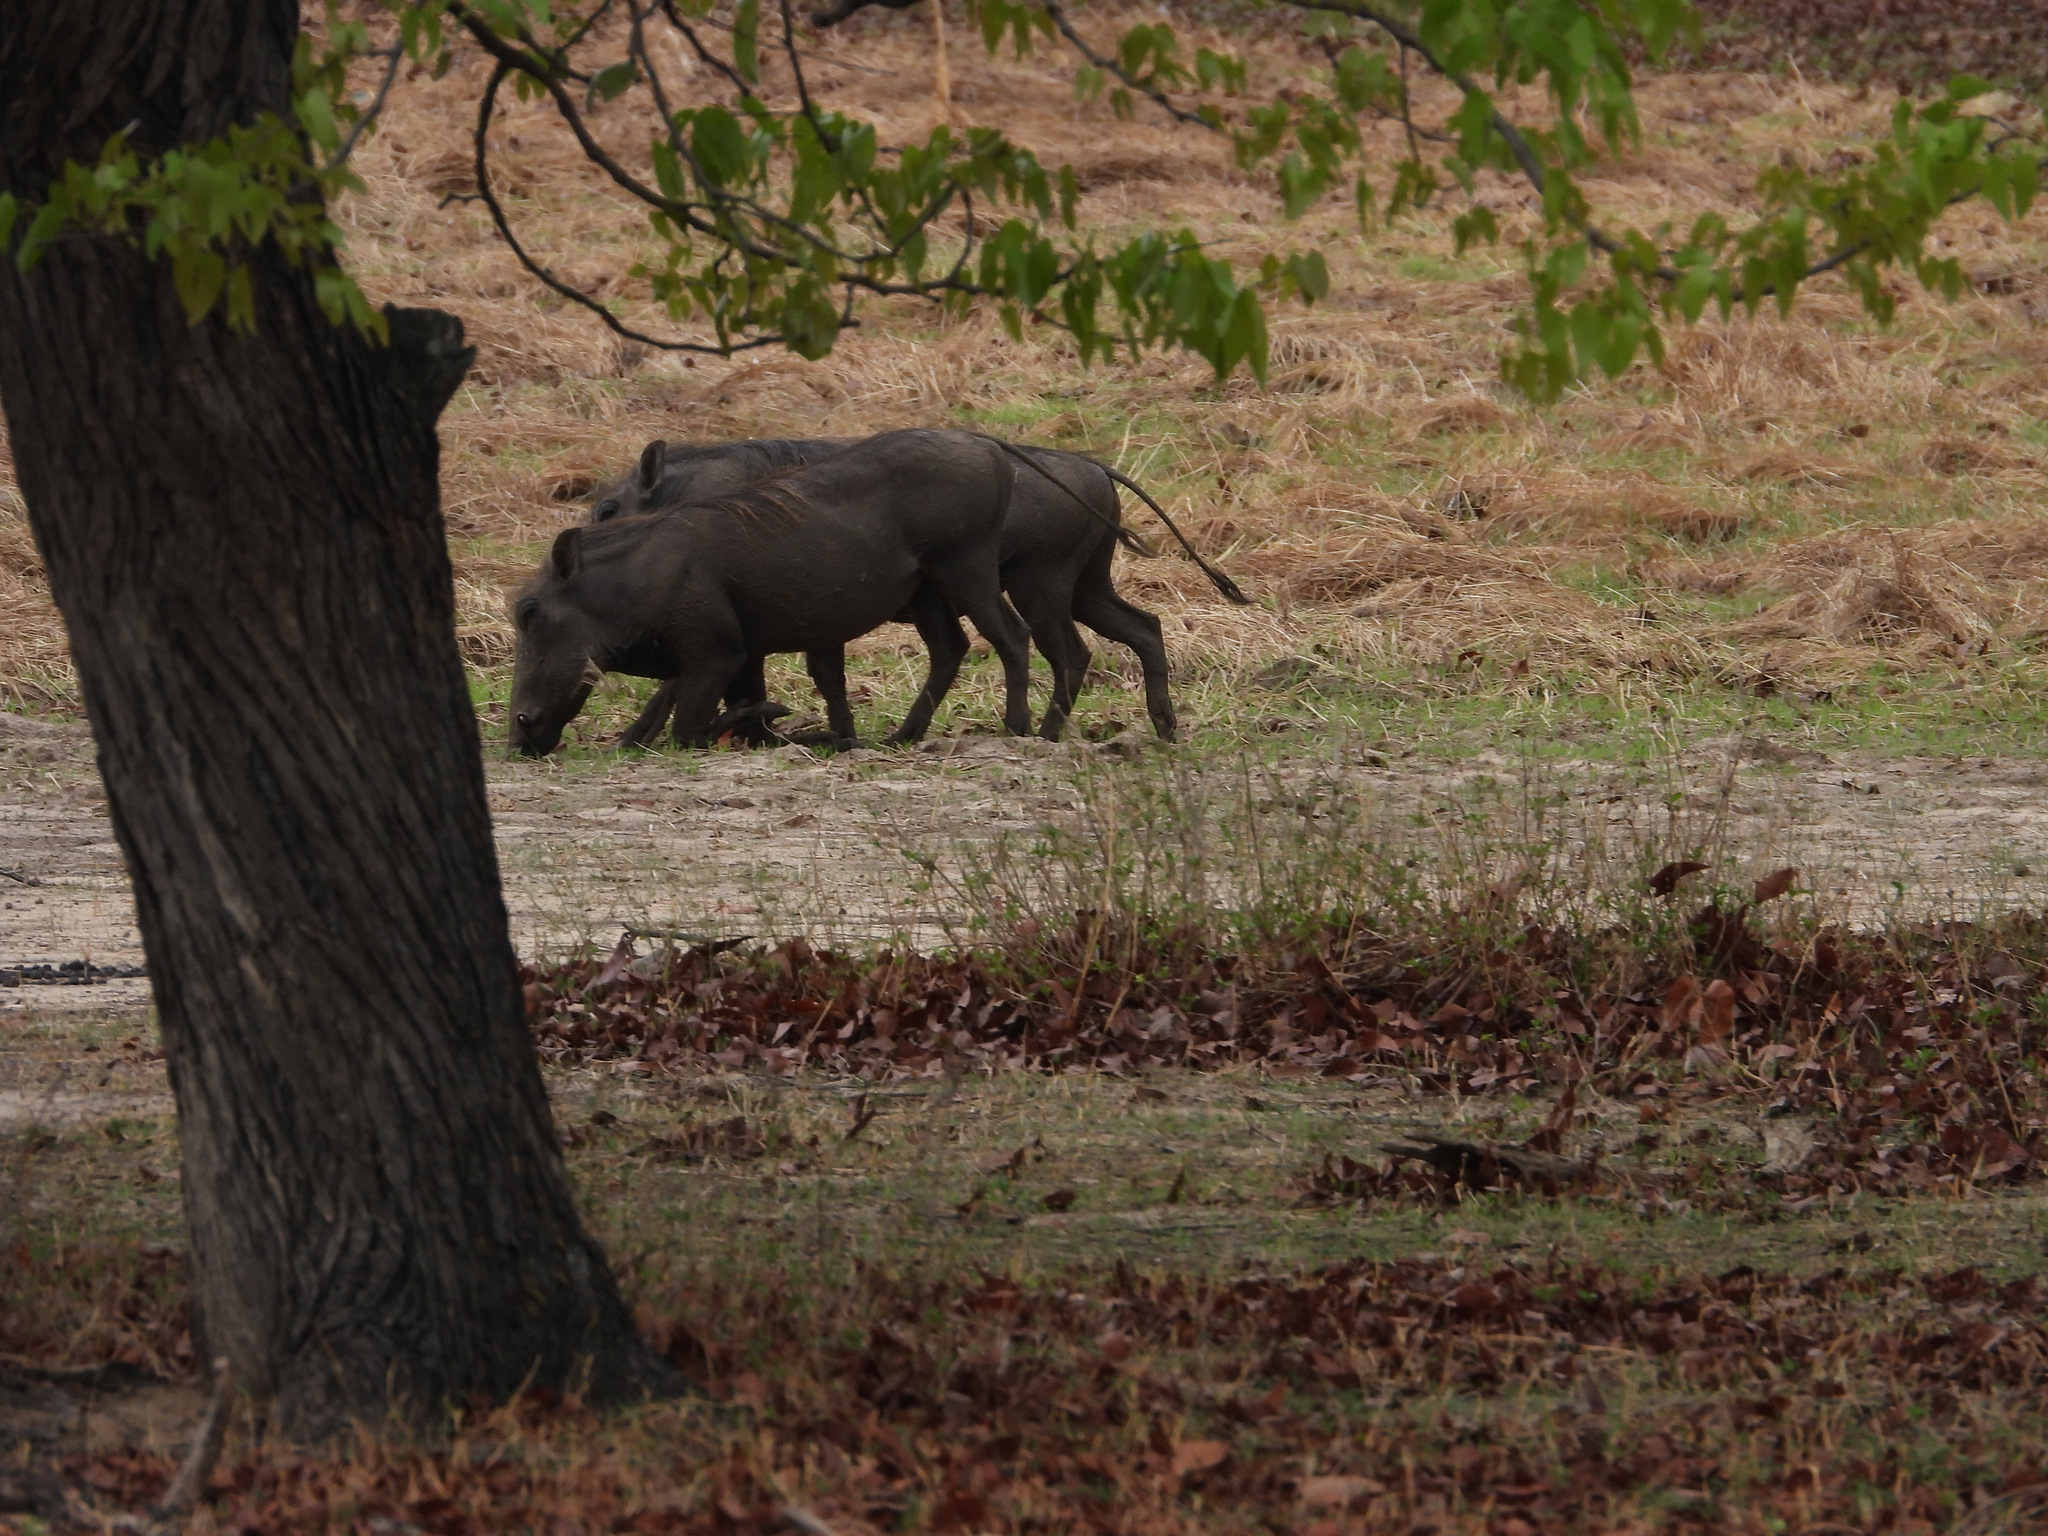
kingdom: Animalia
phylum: Chordata
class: Mammalia
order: Artiodactyla
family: Suidae
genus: Phacochoerus
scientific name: Phacochoerus africanus
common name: Common warthog
